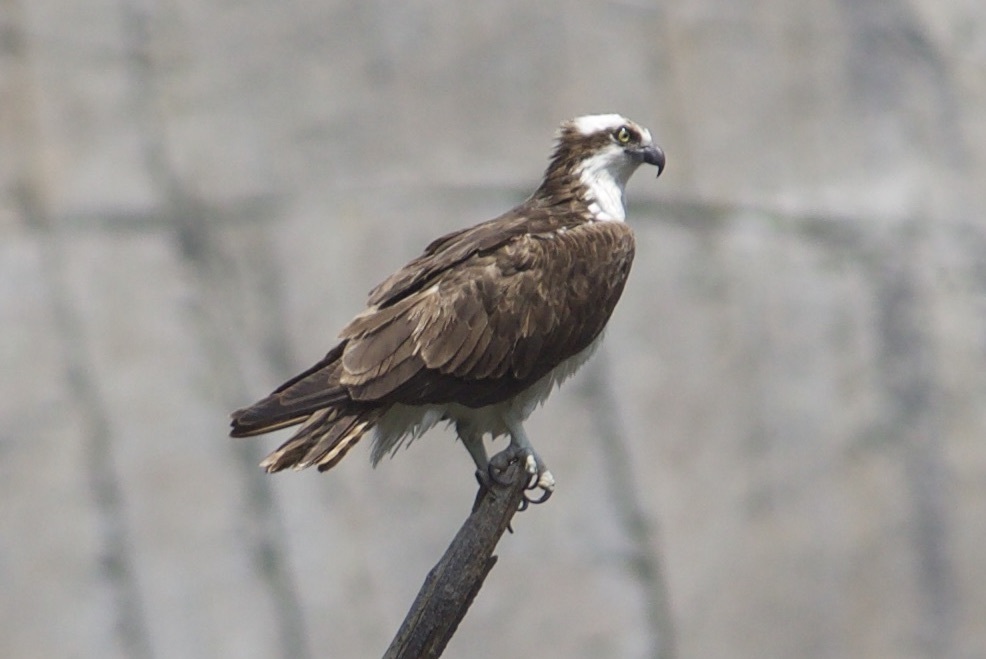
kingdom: Animalia
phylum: Chordata
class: Aves
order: Accipitriformes
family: Pandionidae
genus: Pandion
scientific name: Pandion haliaetus
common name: Osprey
